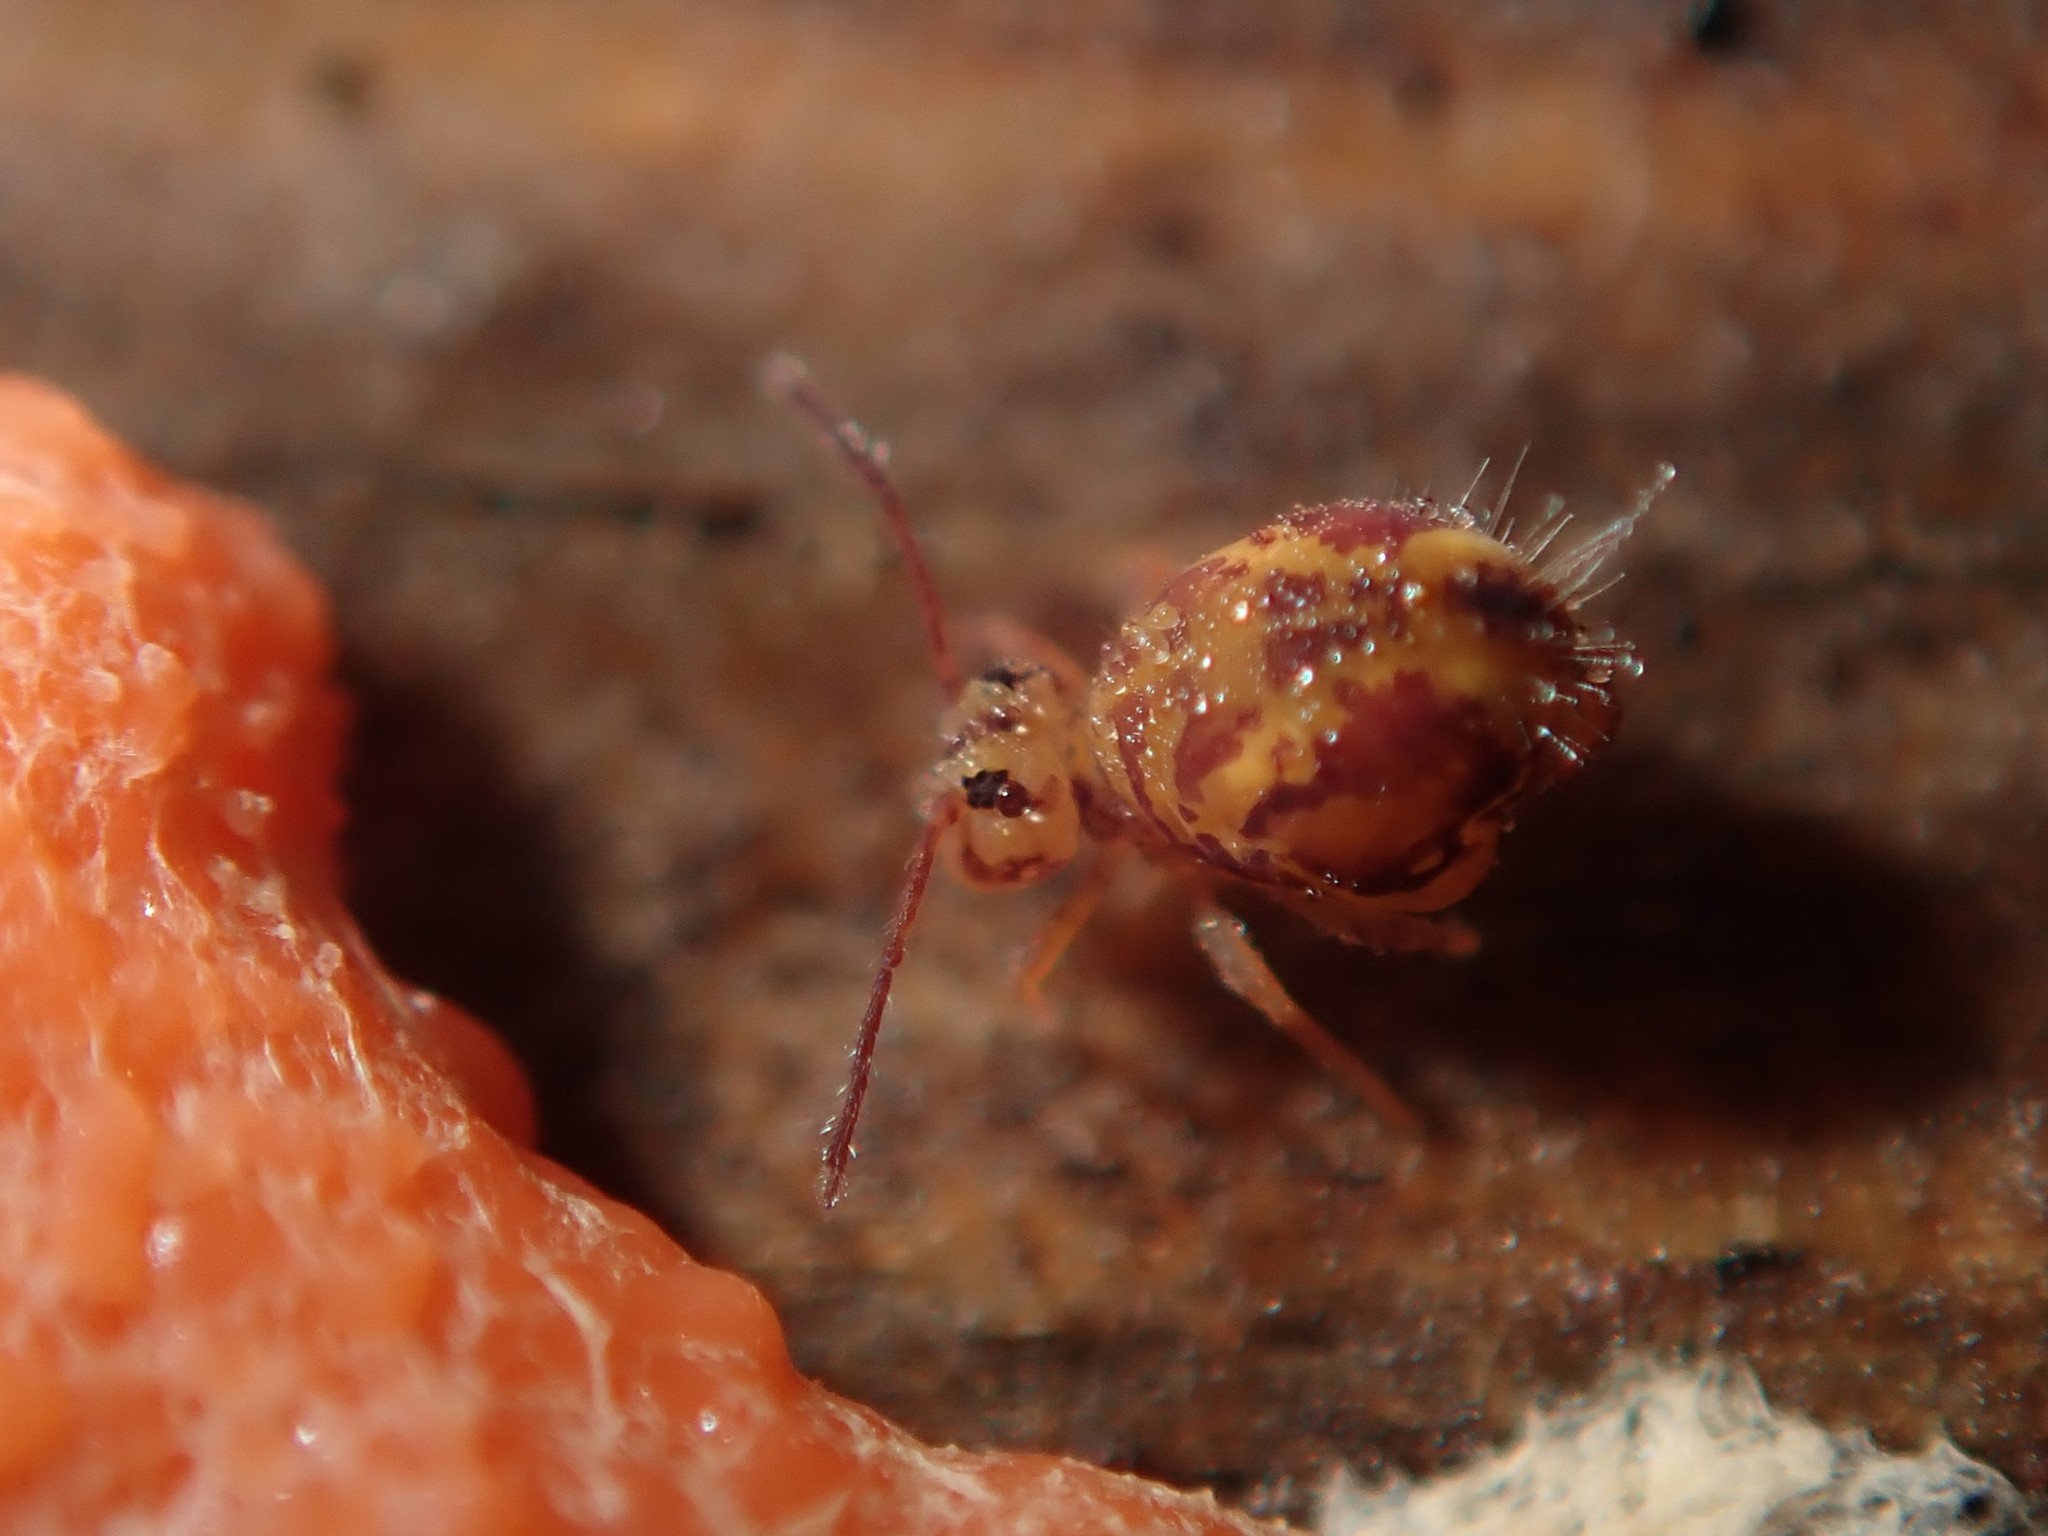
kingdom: Animalia
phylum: Arthropoda
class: Collembola
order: Symphypleona
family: Dicyrtomidae
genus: Dicyrtomina
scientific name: Dicyrtomina ornata
